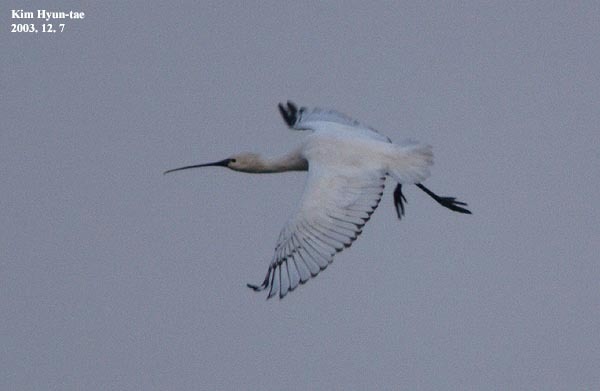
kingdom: Animalia
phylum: Chordata
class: Aves
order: Pelecaniformes
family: Threskiornithidae
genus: Platalea
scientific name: Platalea leucorodia
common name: Eurasian spoonbill
